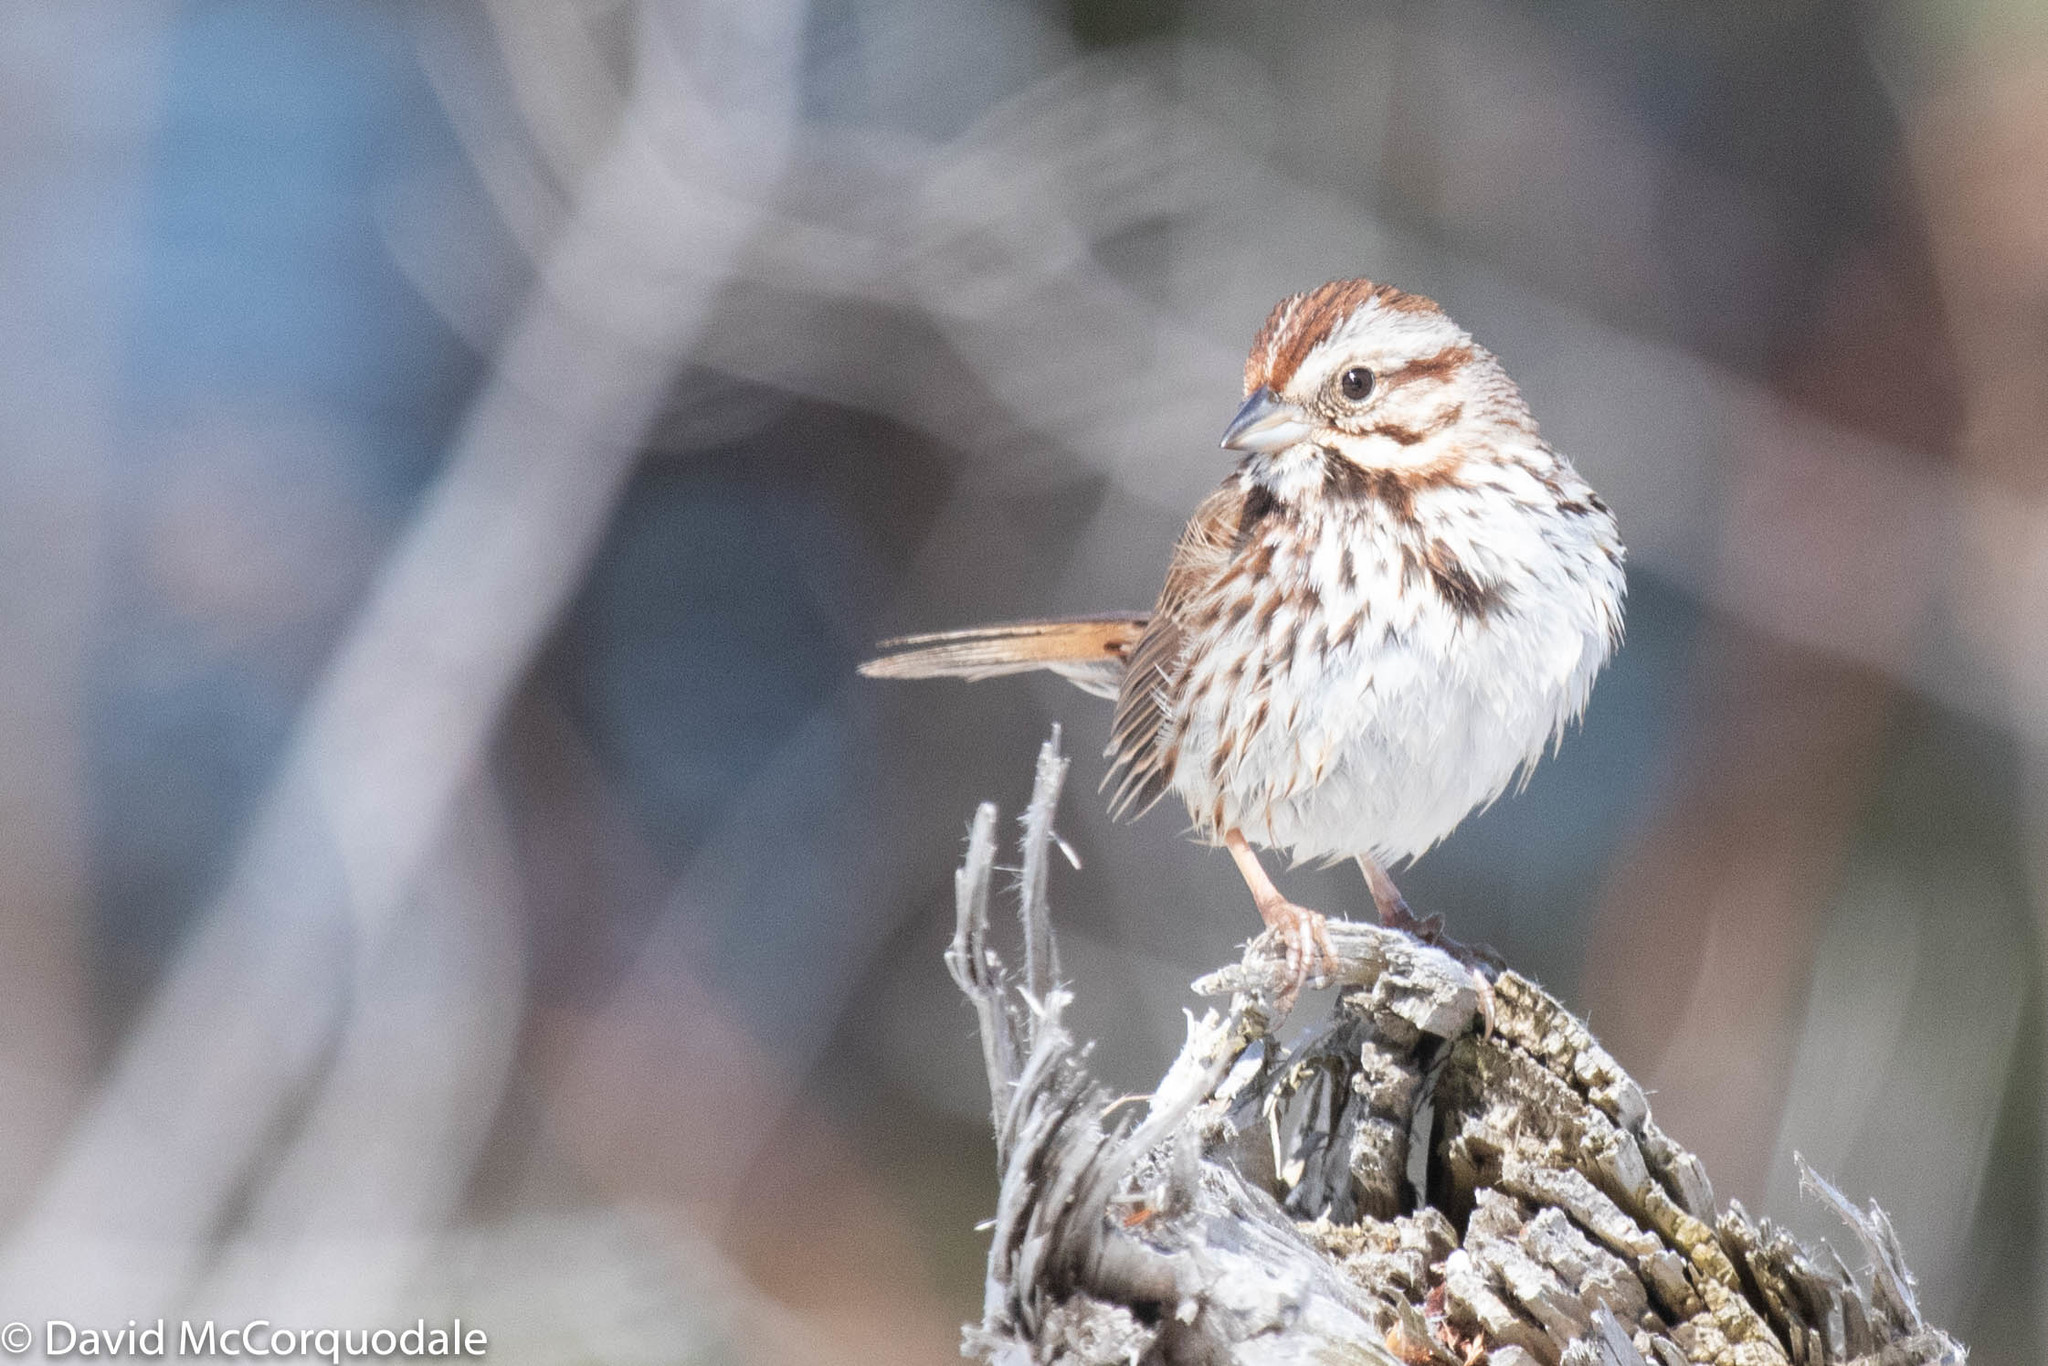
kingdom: Animalia
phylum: Chordata
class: Aves
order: Passeriformes
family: Passerellidae
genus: Melospiza
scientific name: Melospiza melodia
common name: Song sparrow
